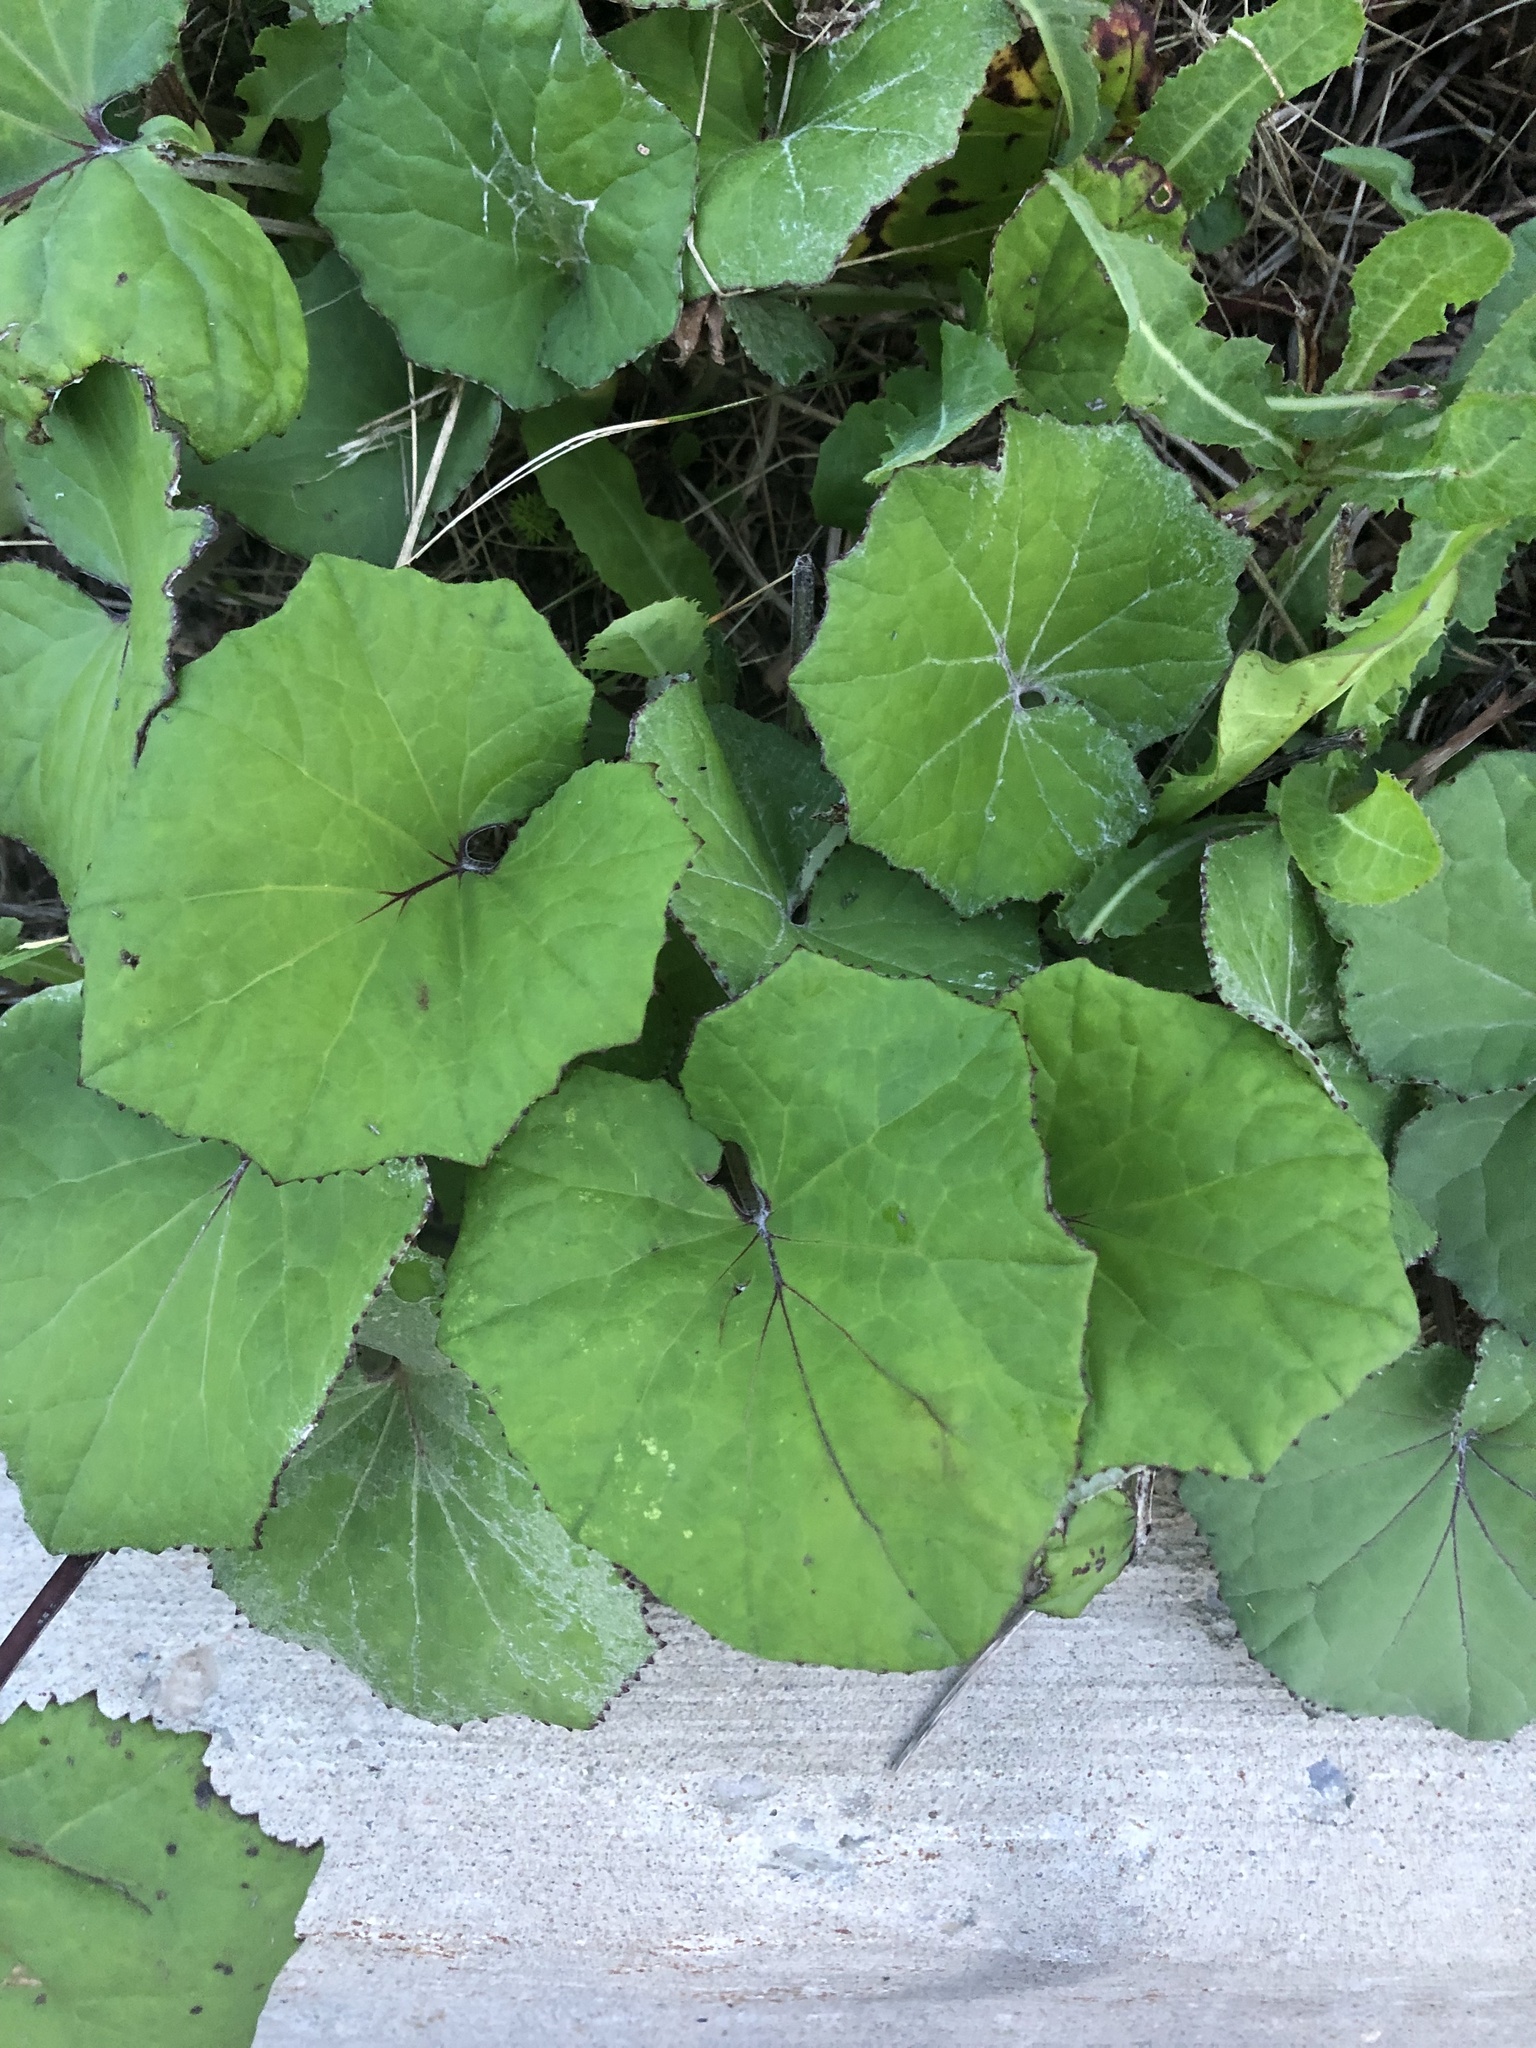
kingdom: Plantae
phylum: Tracheophyta
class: Magnoliopsida
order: Asterales
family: Asteraceae
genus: Tussilago
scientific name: Tussilago farfara
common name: Coltsfoot
